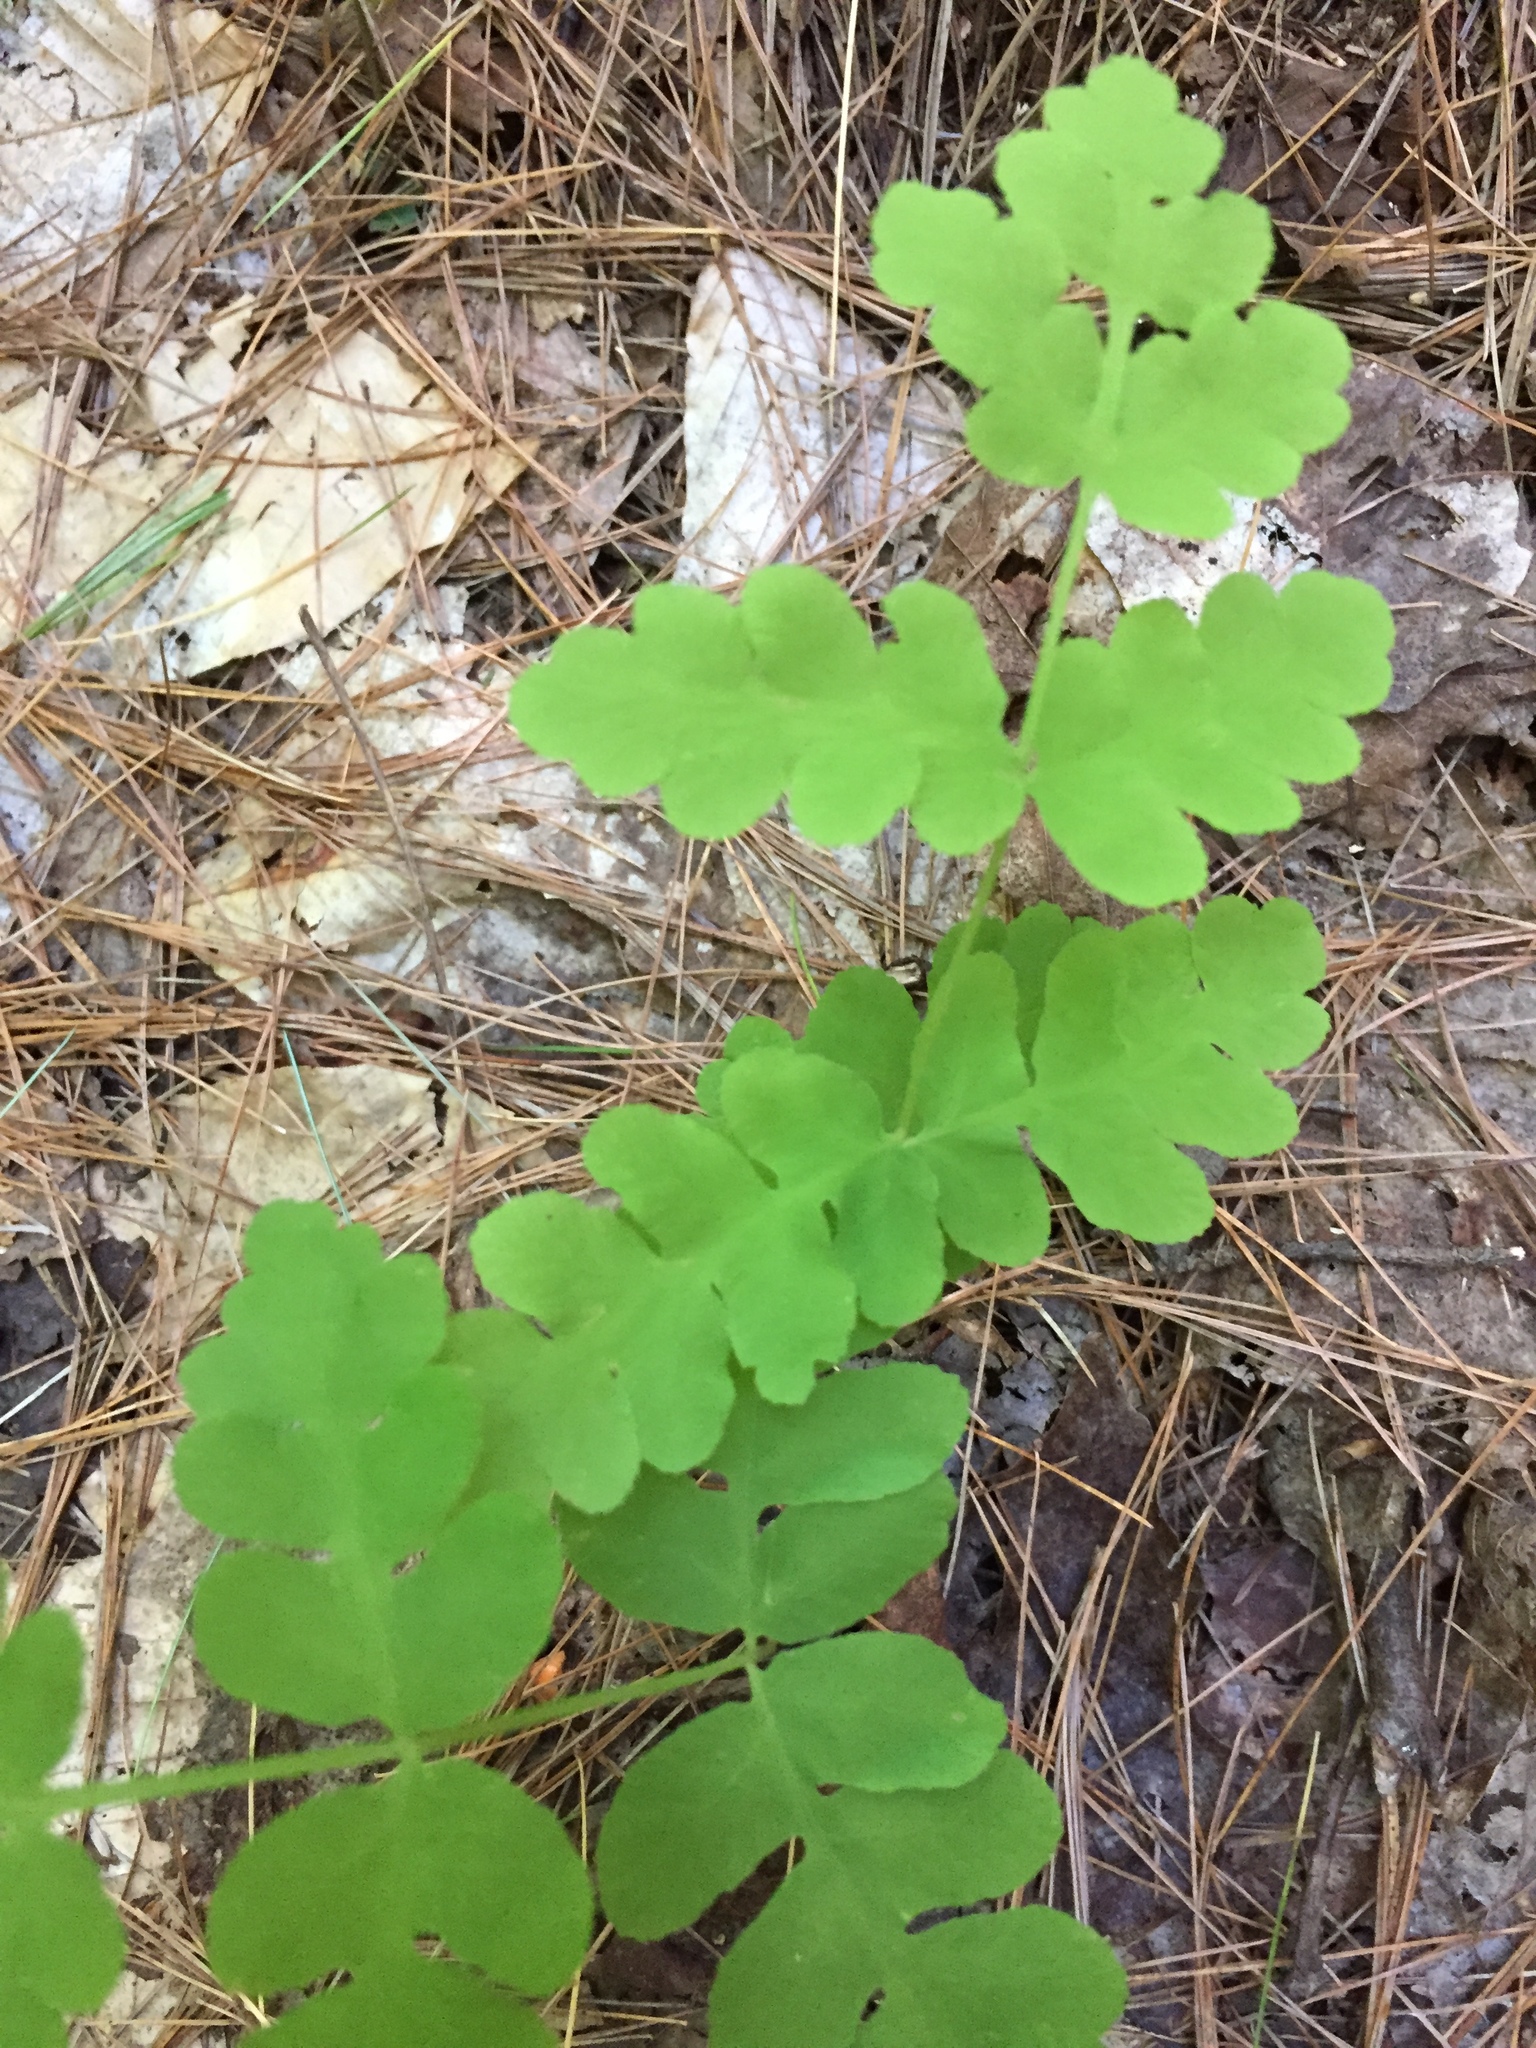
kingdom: Plantae
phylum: Tracheophyta
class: Polypodiopsida
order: Osmundales
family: Osmundaceae
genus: Claytosmunda
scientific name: Claytosmunda claytoniana
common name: Clayton's fern
